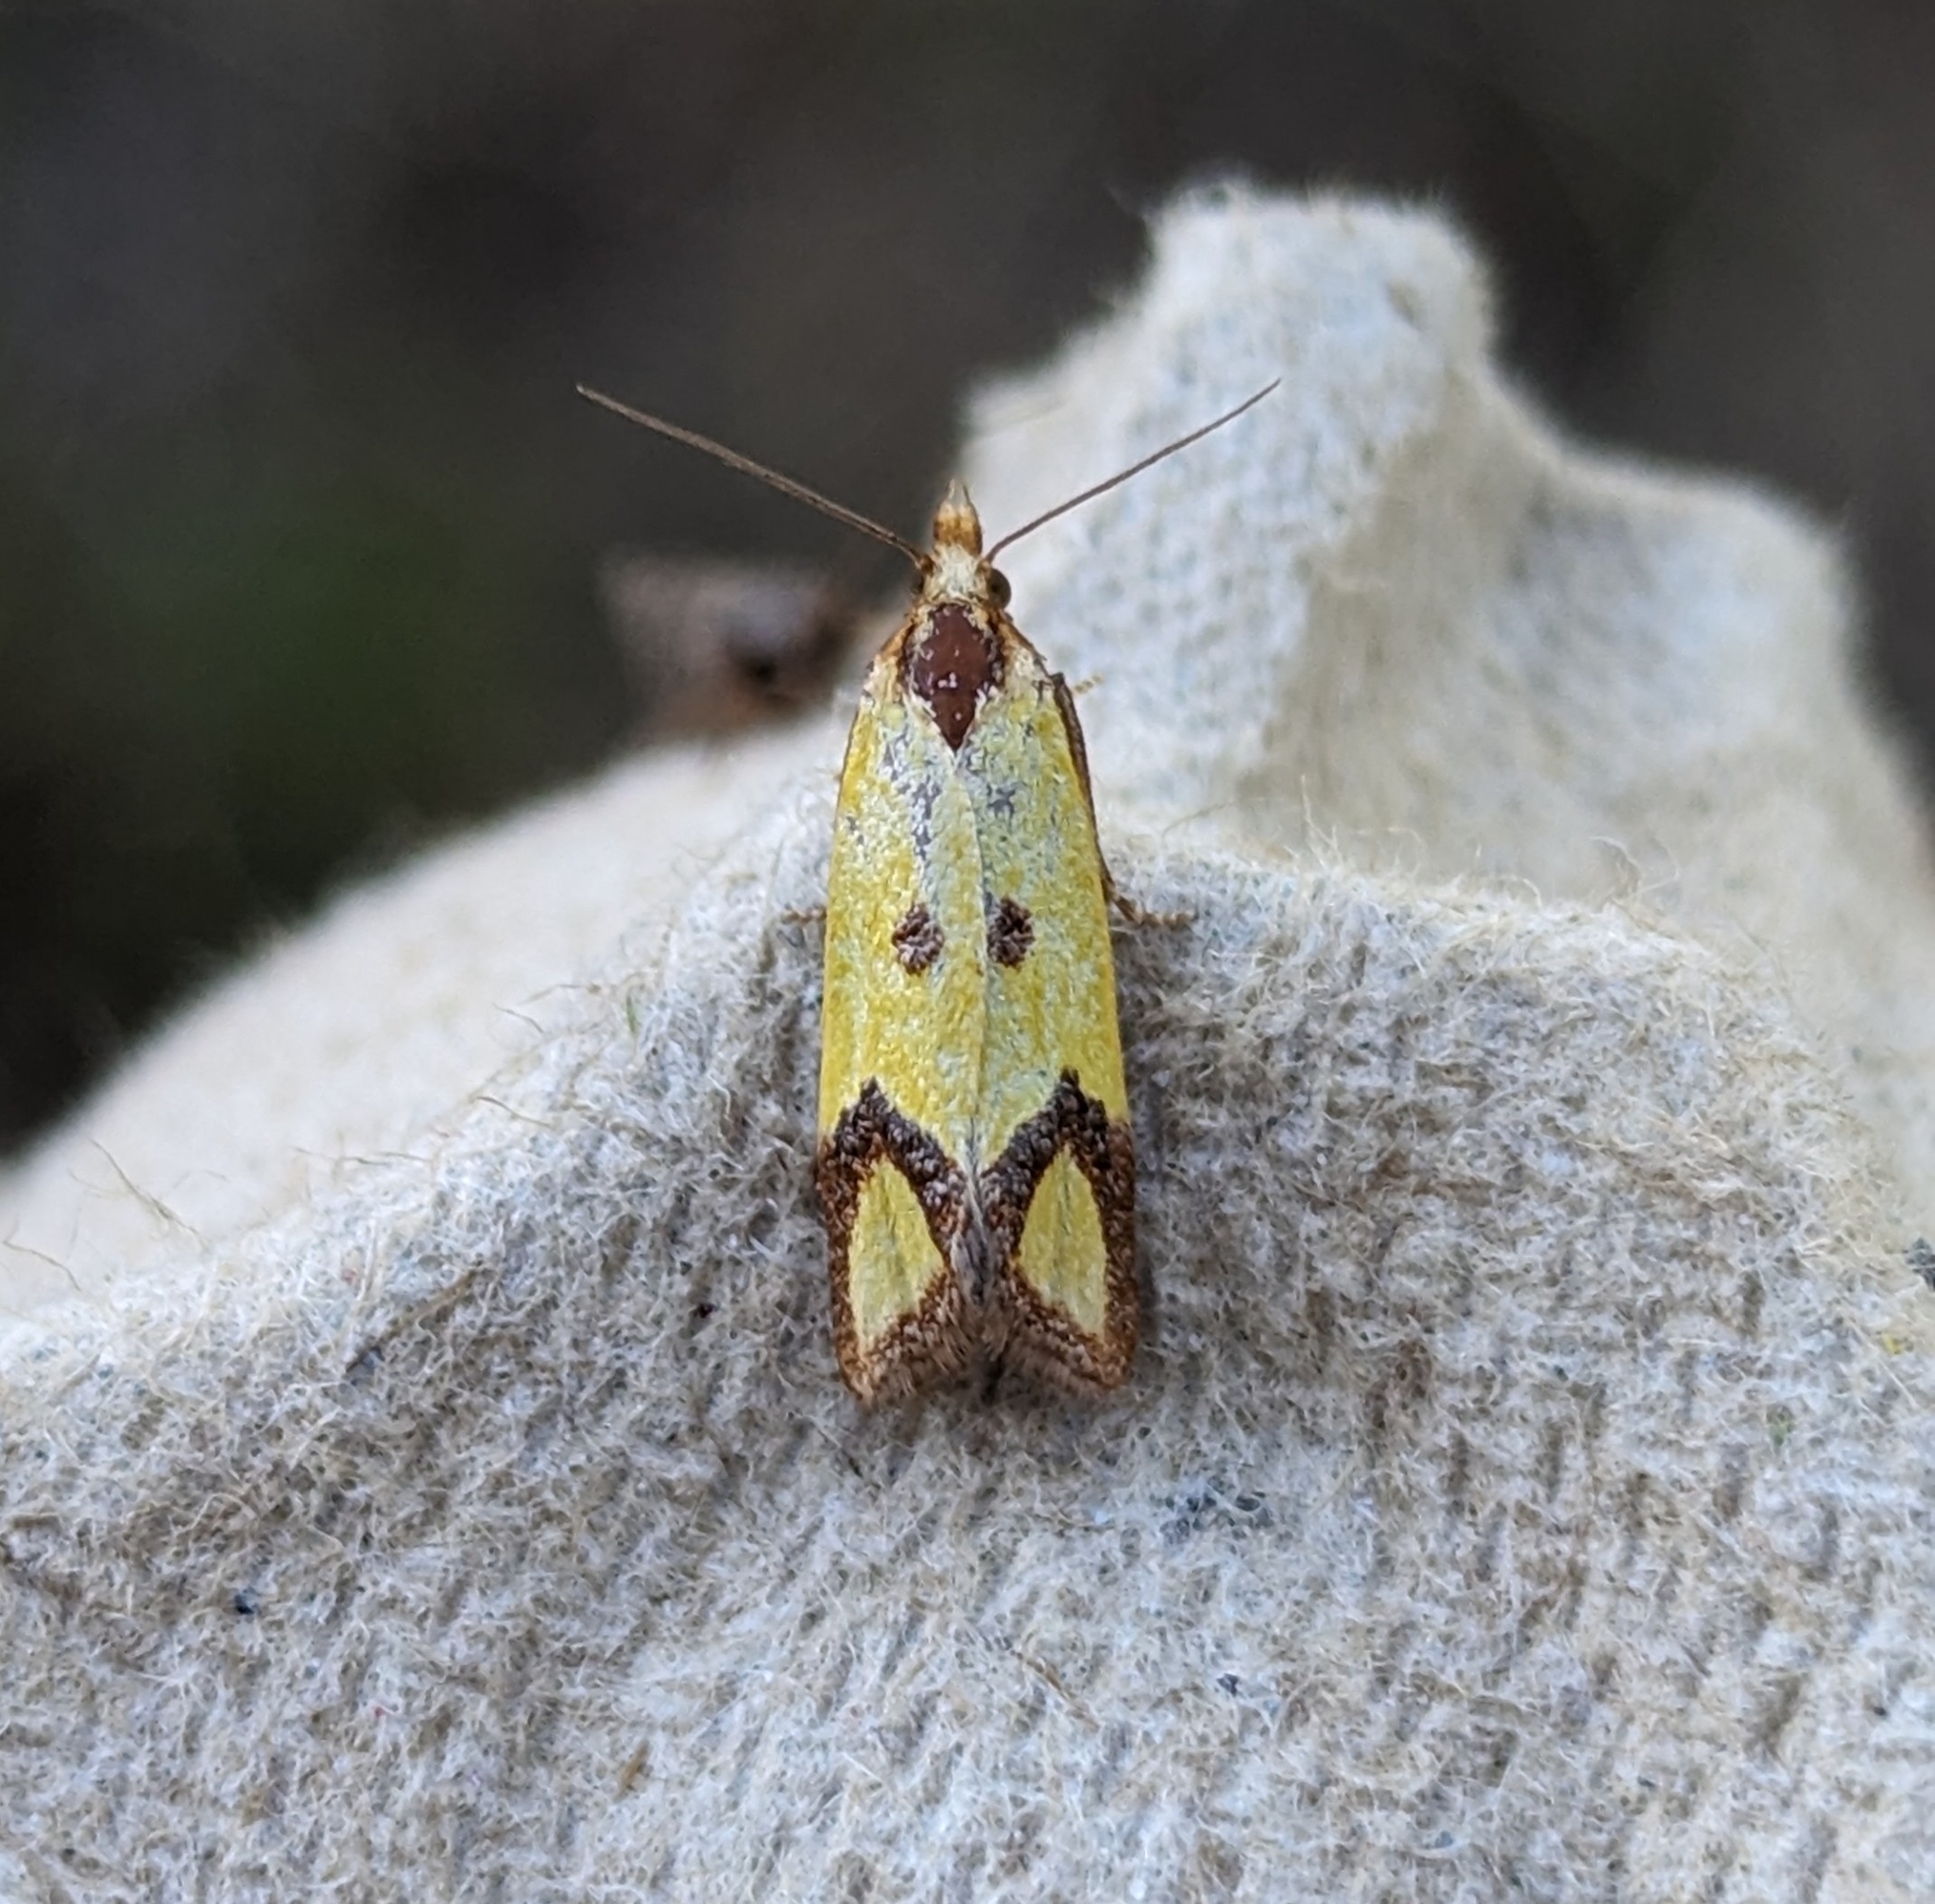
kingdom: Animalia
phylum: Arthropoda
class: Insecta
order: Lepidoptera
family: Tortricidae
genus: Agapeta
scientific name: Agapeta zoegana
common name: Sulfur knapweed root moth
